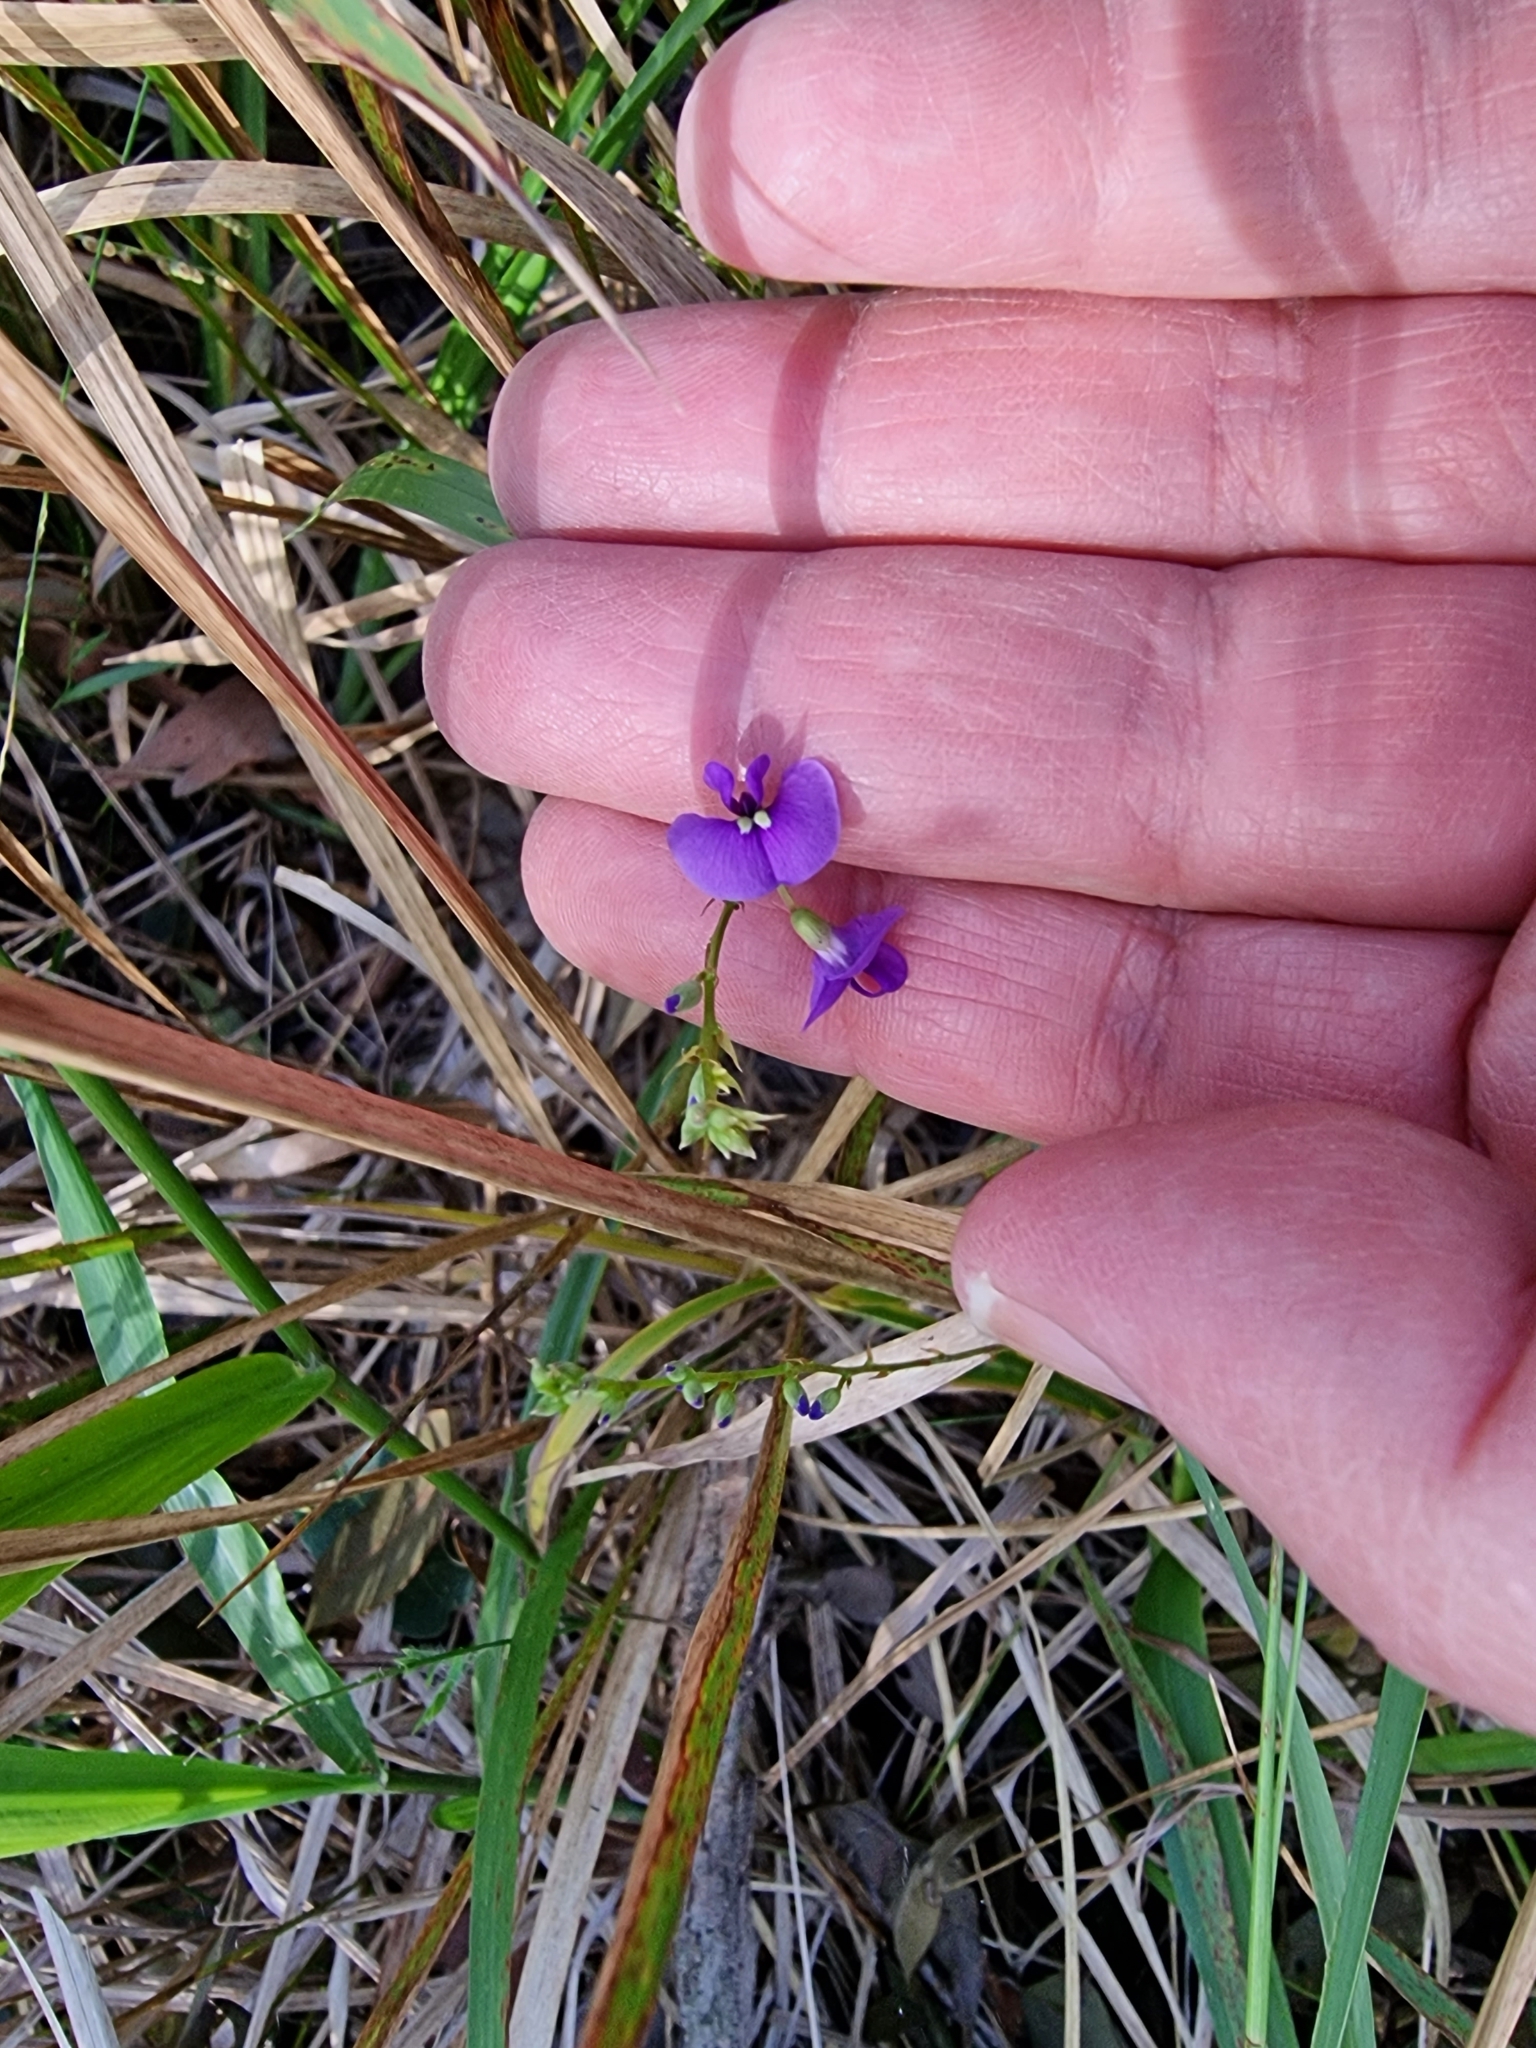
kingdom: Plantae
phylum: Tracheophyta
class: Magnoliopsida
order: Fabales
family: Fabaceae
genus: Hardenbergia
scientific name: Hardenbergia violacea
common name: Coral-pea
